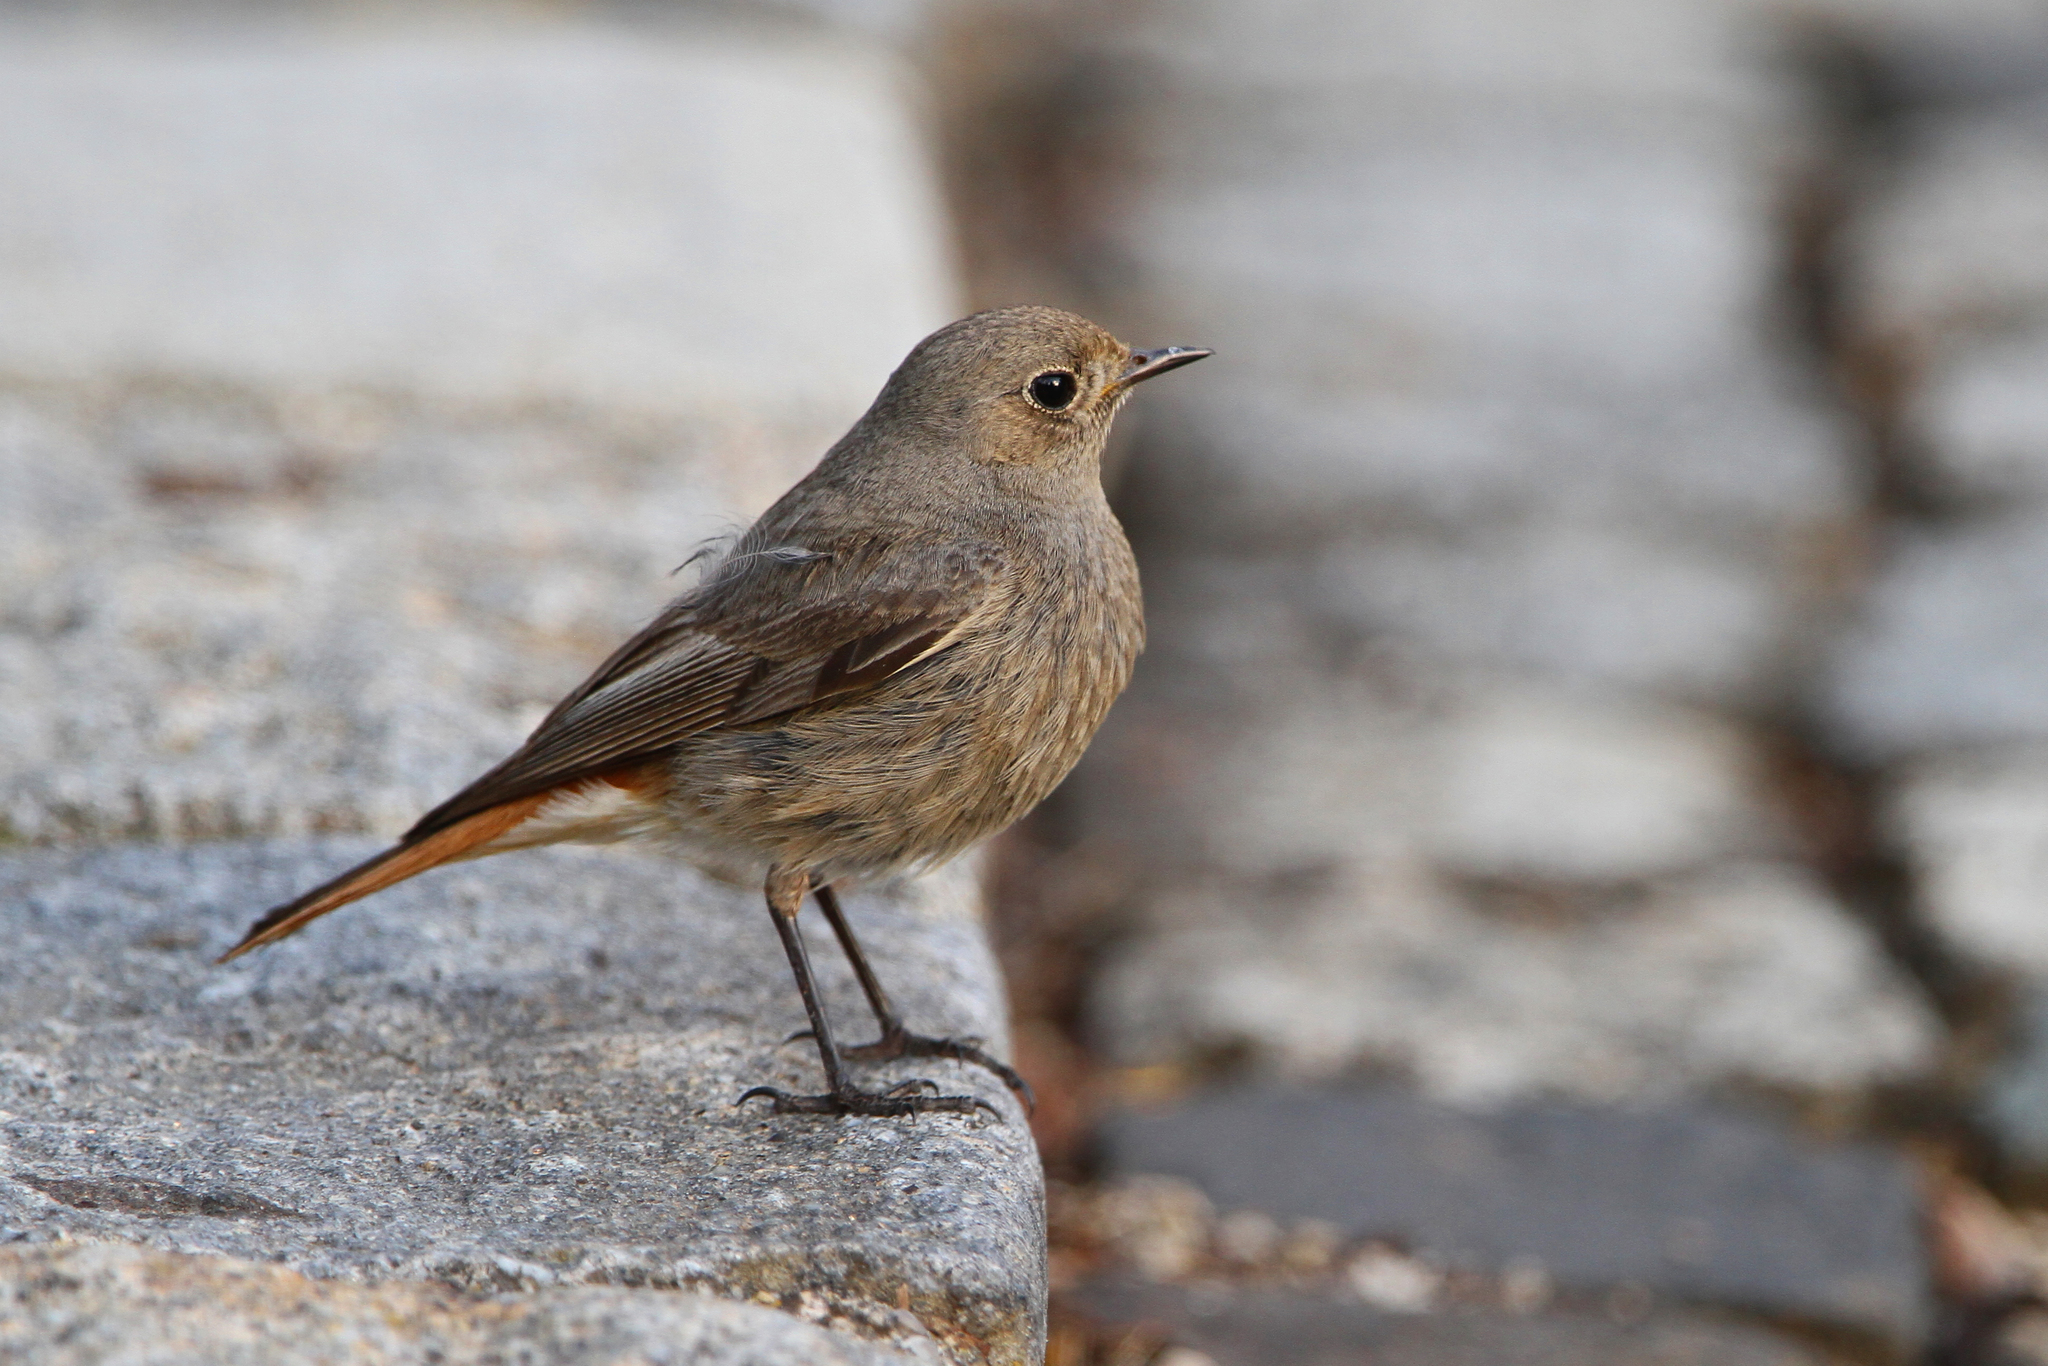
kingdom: Animalia
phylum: Chordata
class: Aves
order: Passeriformes
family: Muscicapidae
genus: Phoenicurus
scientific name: Phoenicurus ochruros
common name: Black redstart
